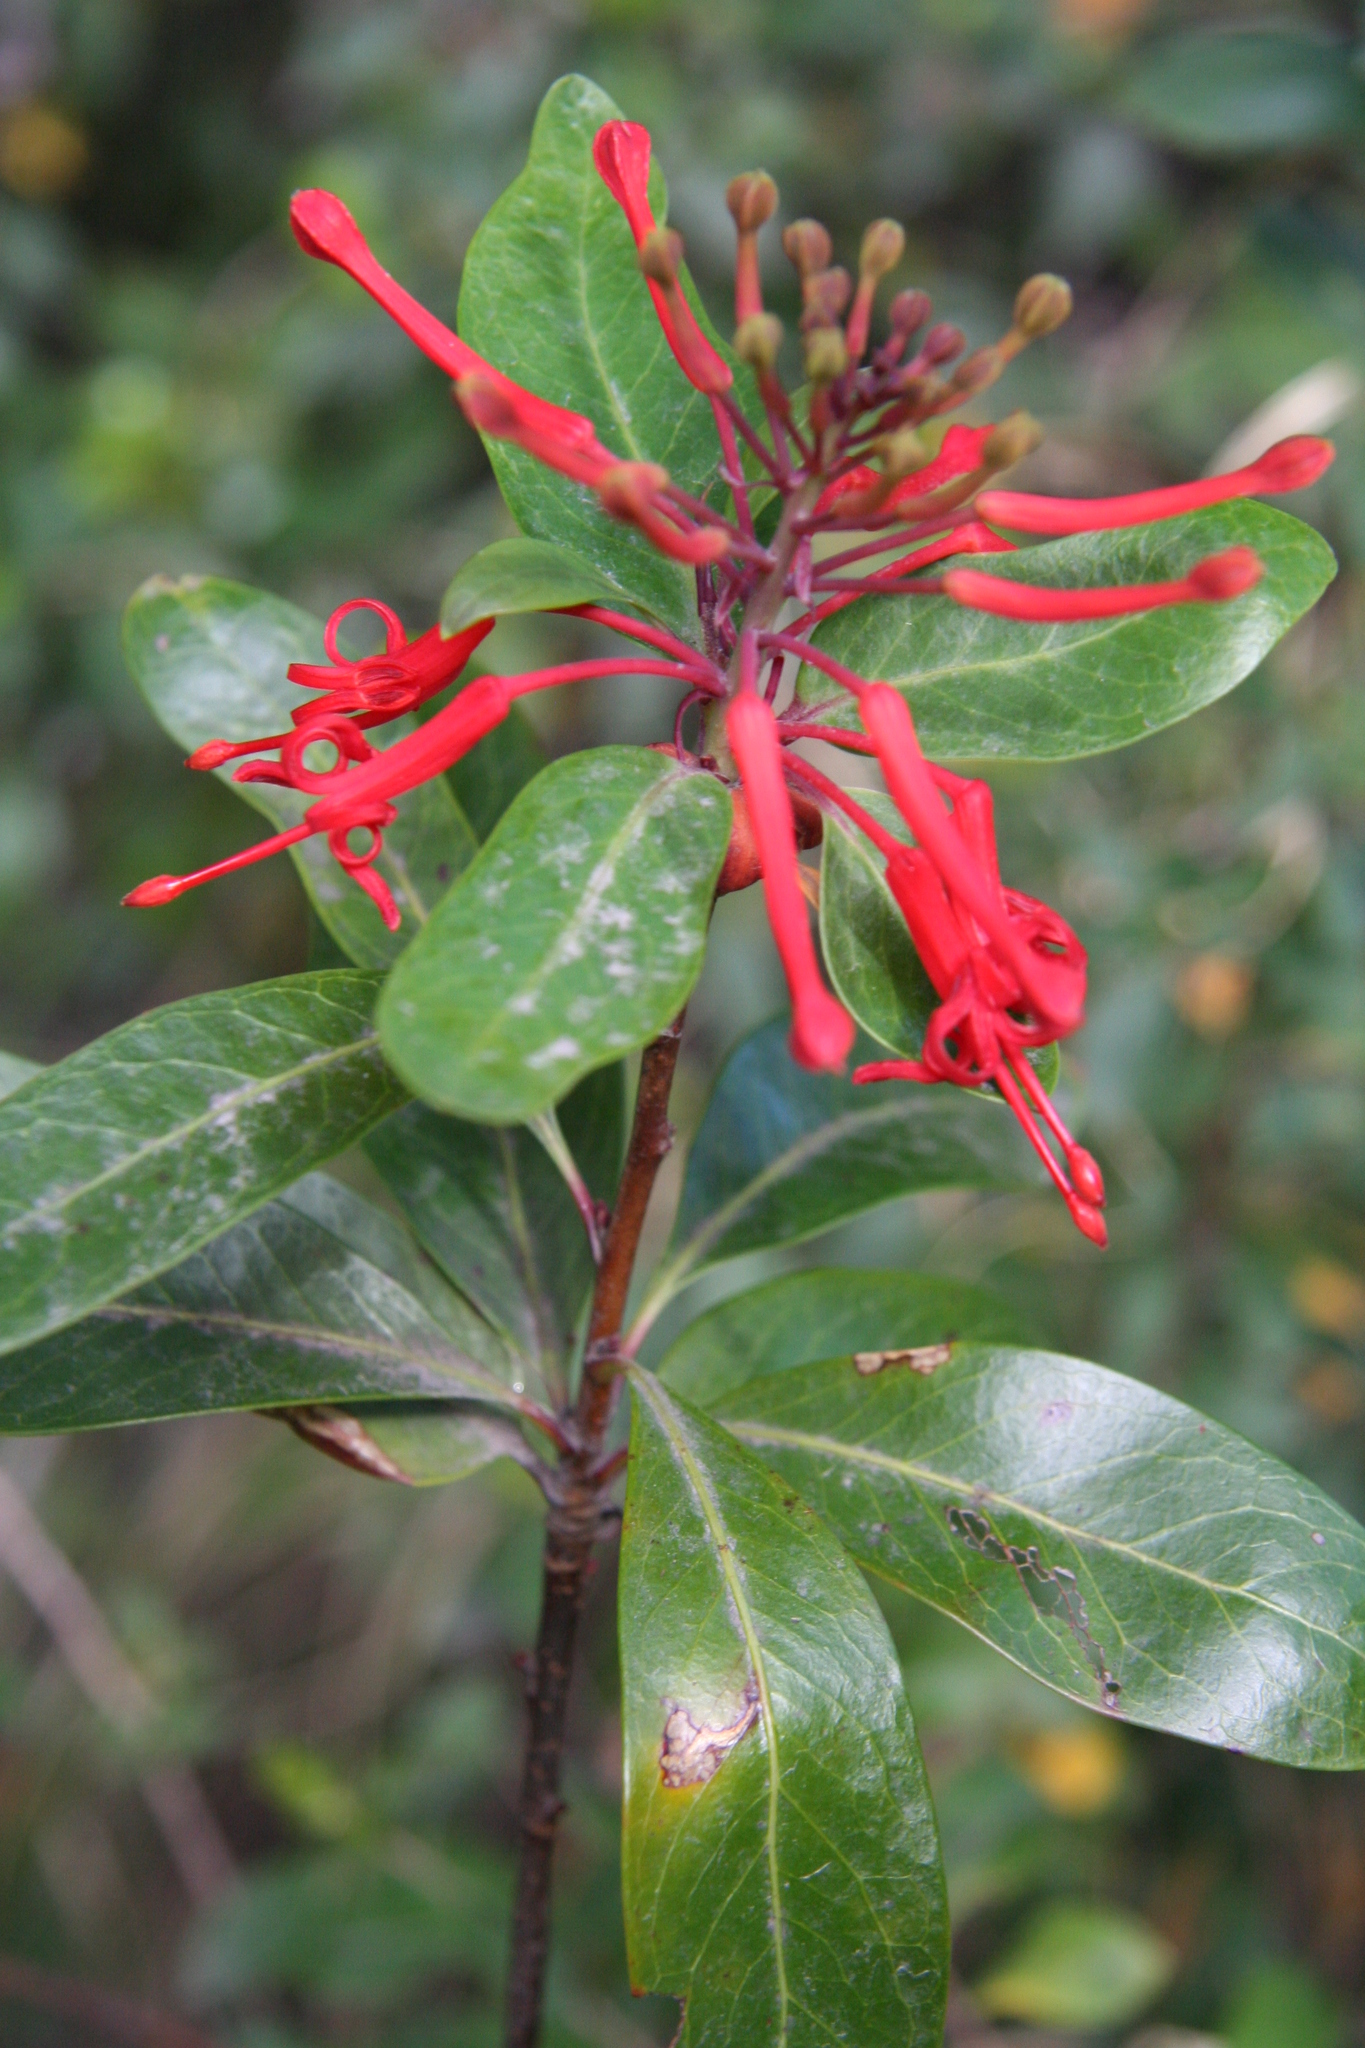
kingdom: Plantae
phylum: Tracheophyta
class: Magnoliopsida
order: Proteales
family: Proteaceae
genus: Embothrium
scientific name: Embothrium coccineum
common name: Chilean firebush
